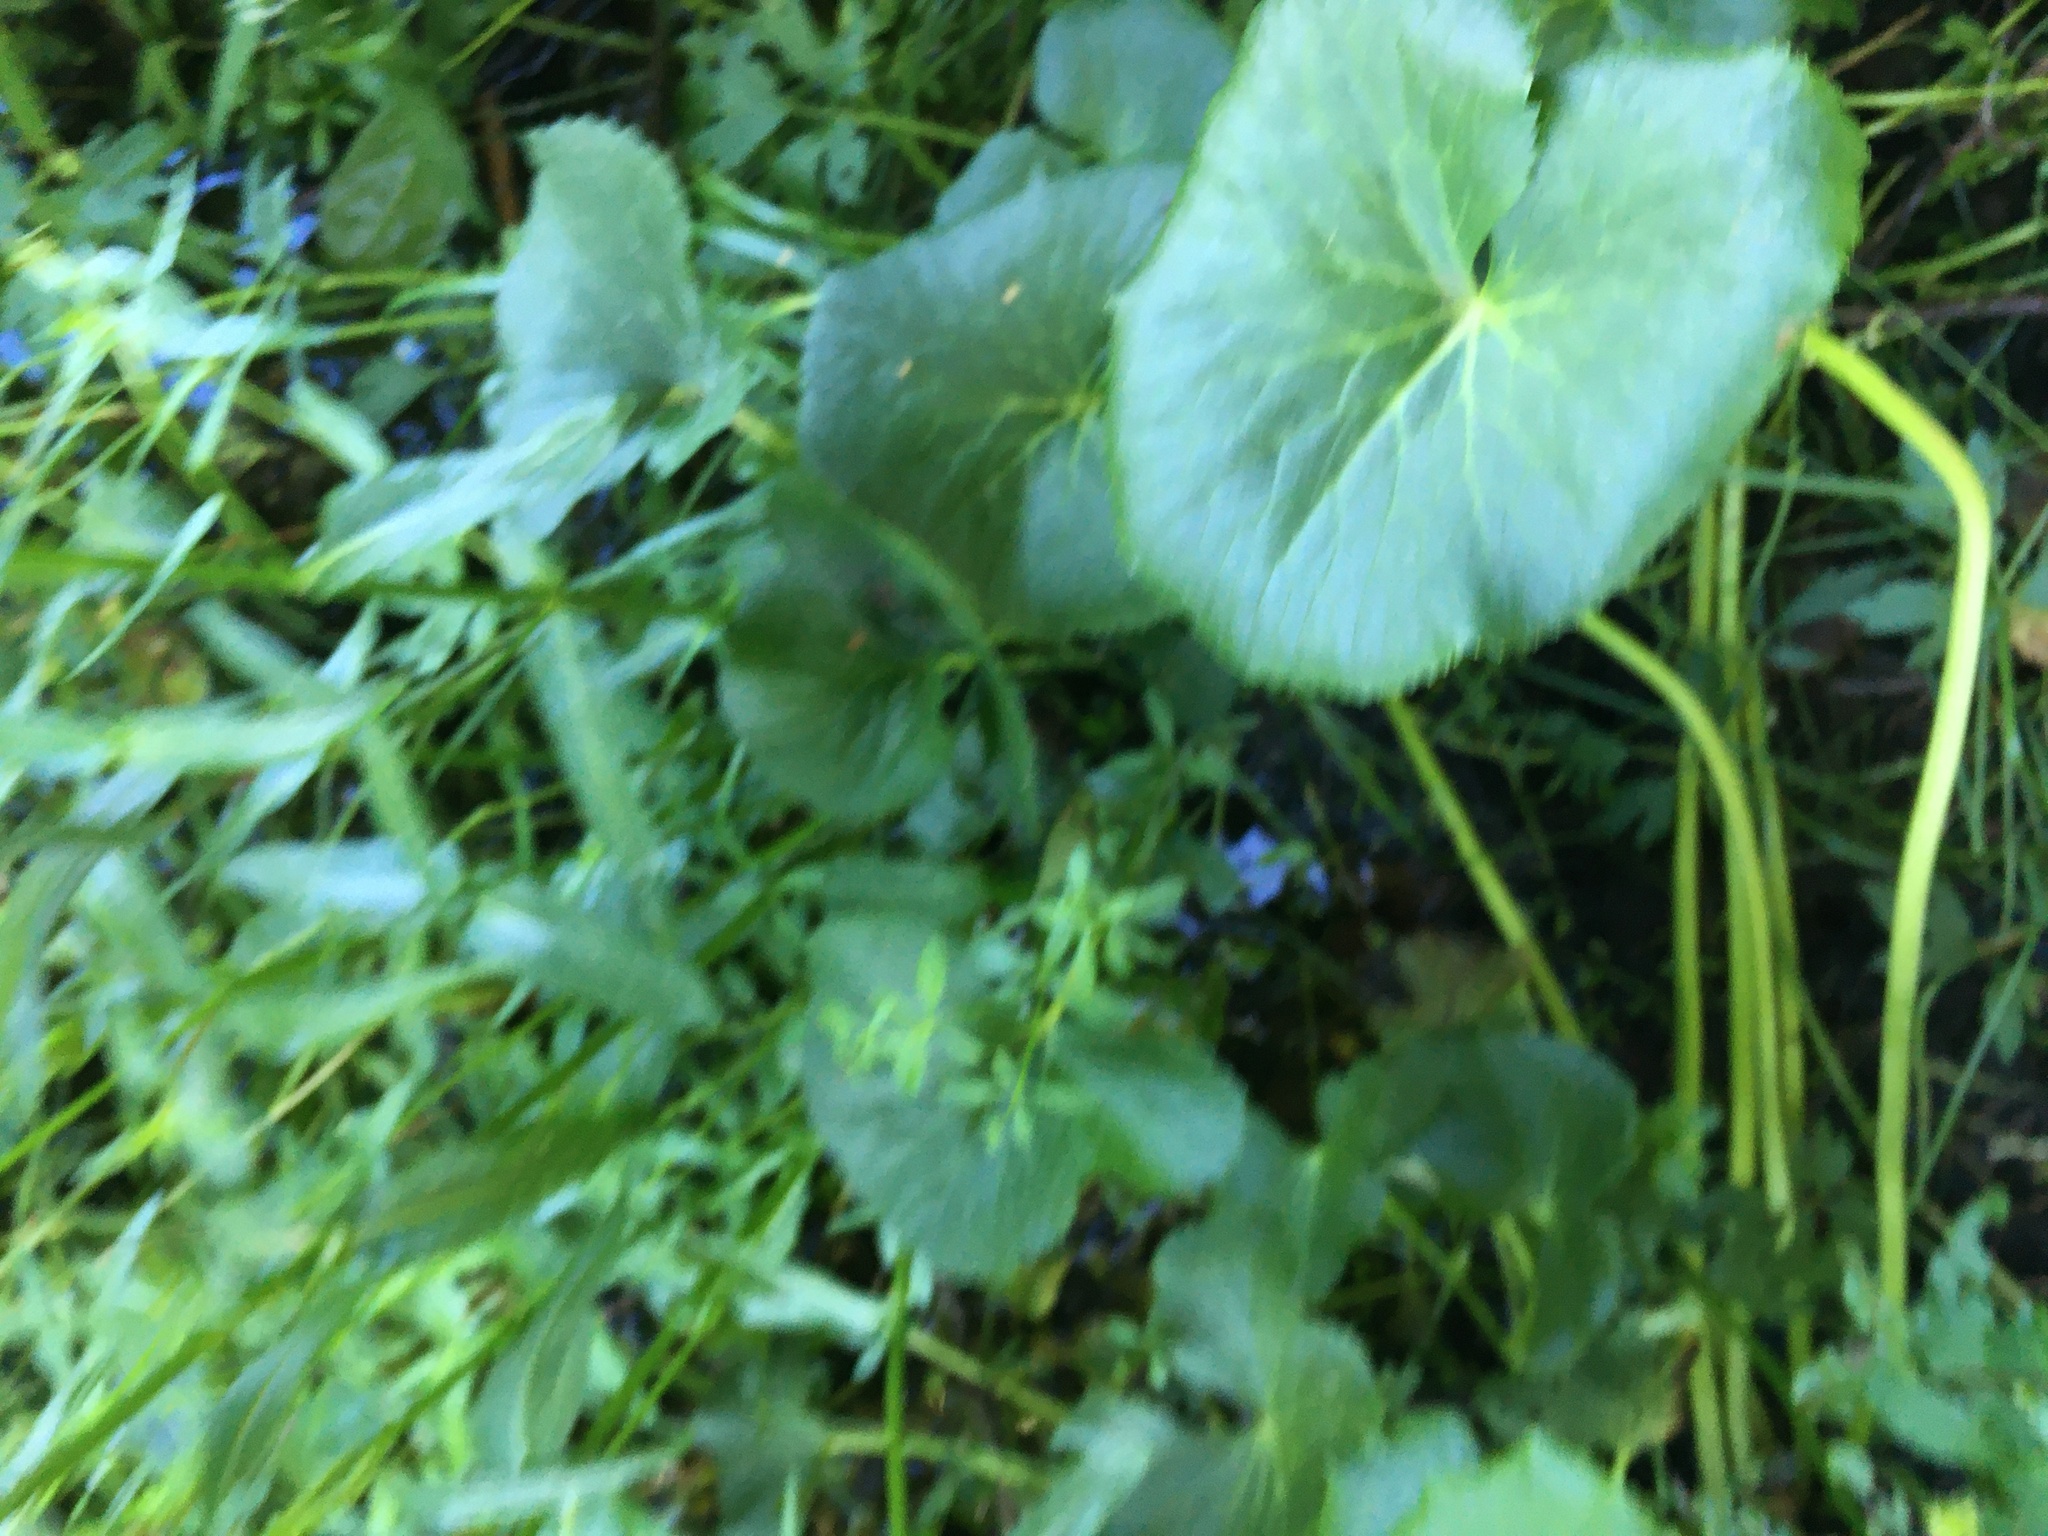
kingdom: Plantae
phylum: Tracheophyta
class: Magnoliopsida
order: Ranunculales
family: Ranunculaceae
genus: Caltha
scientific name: Caltha palustris
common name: Marsh marigold
